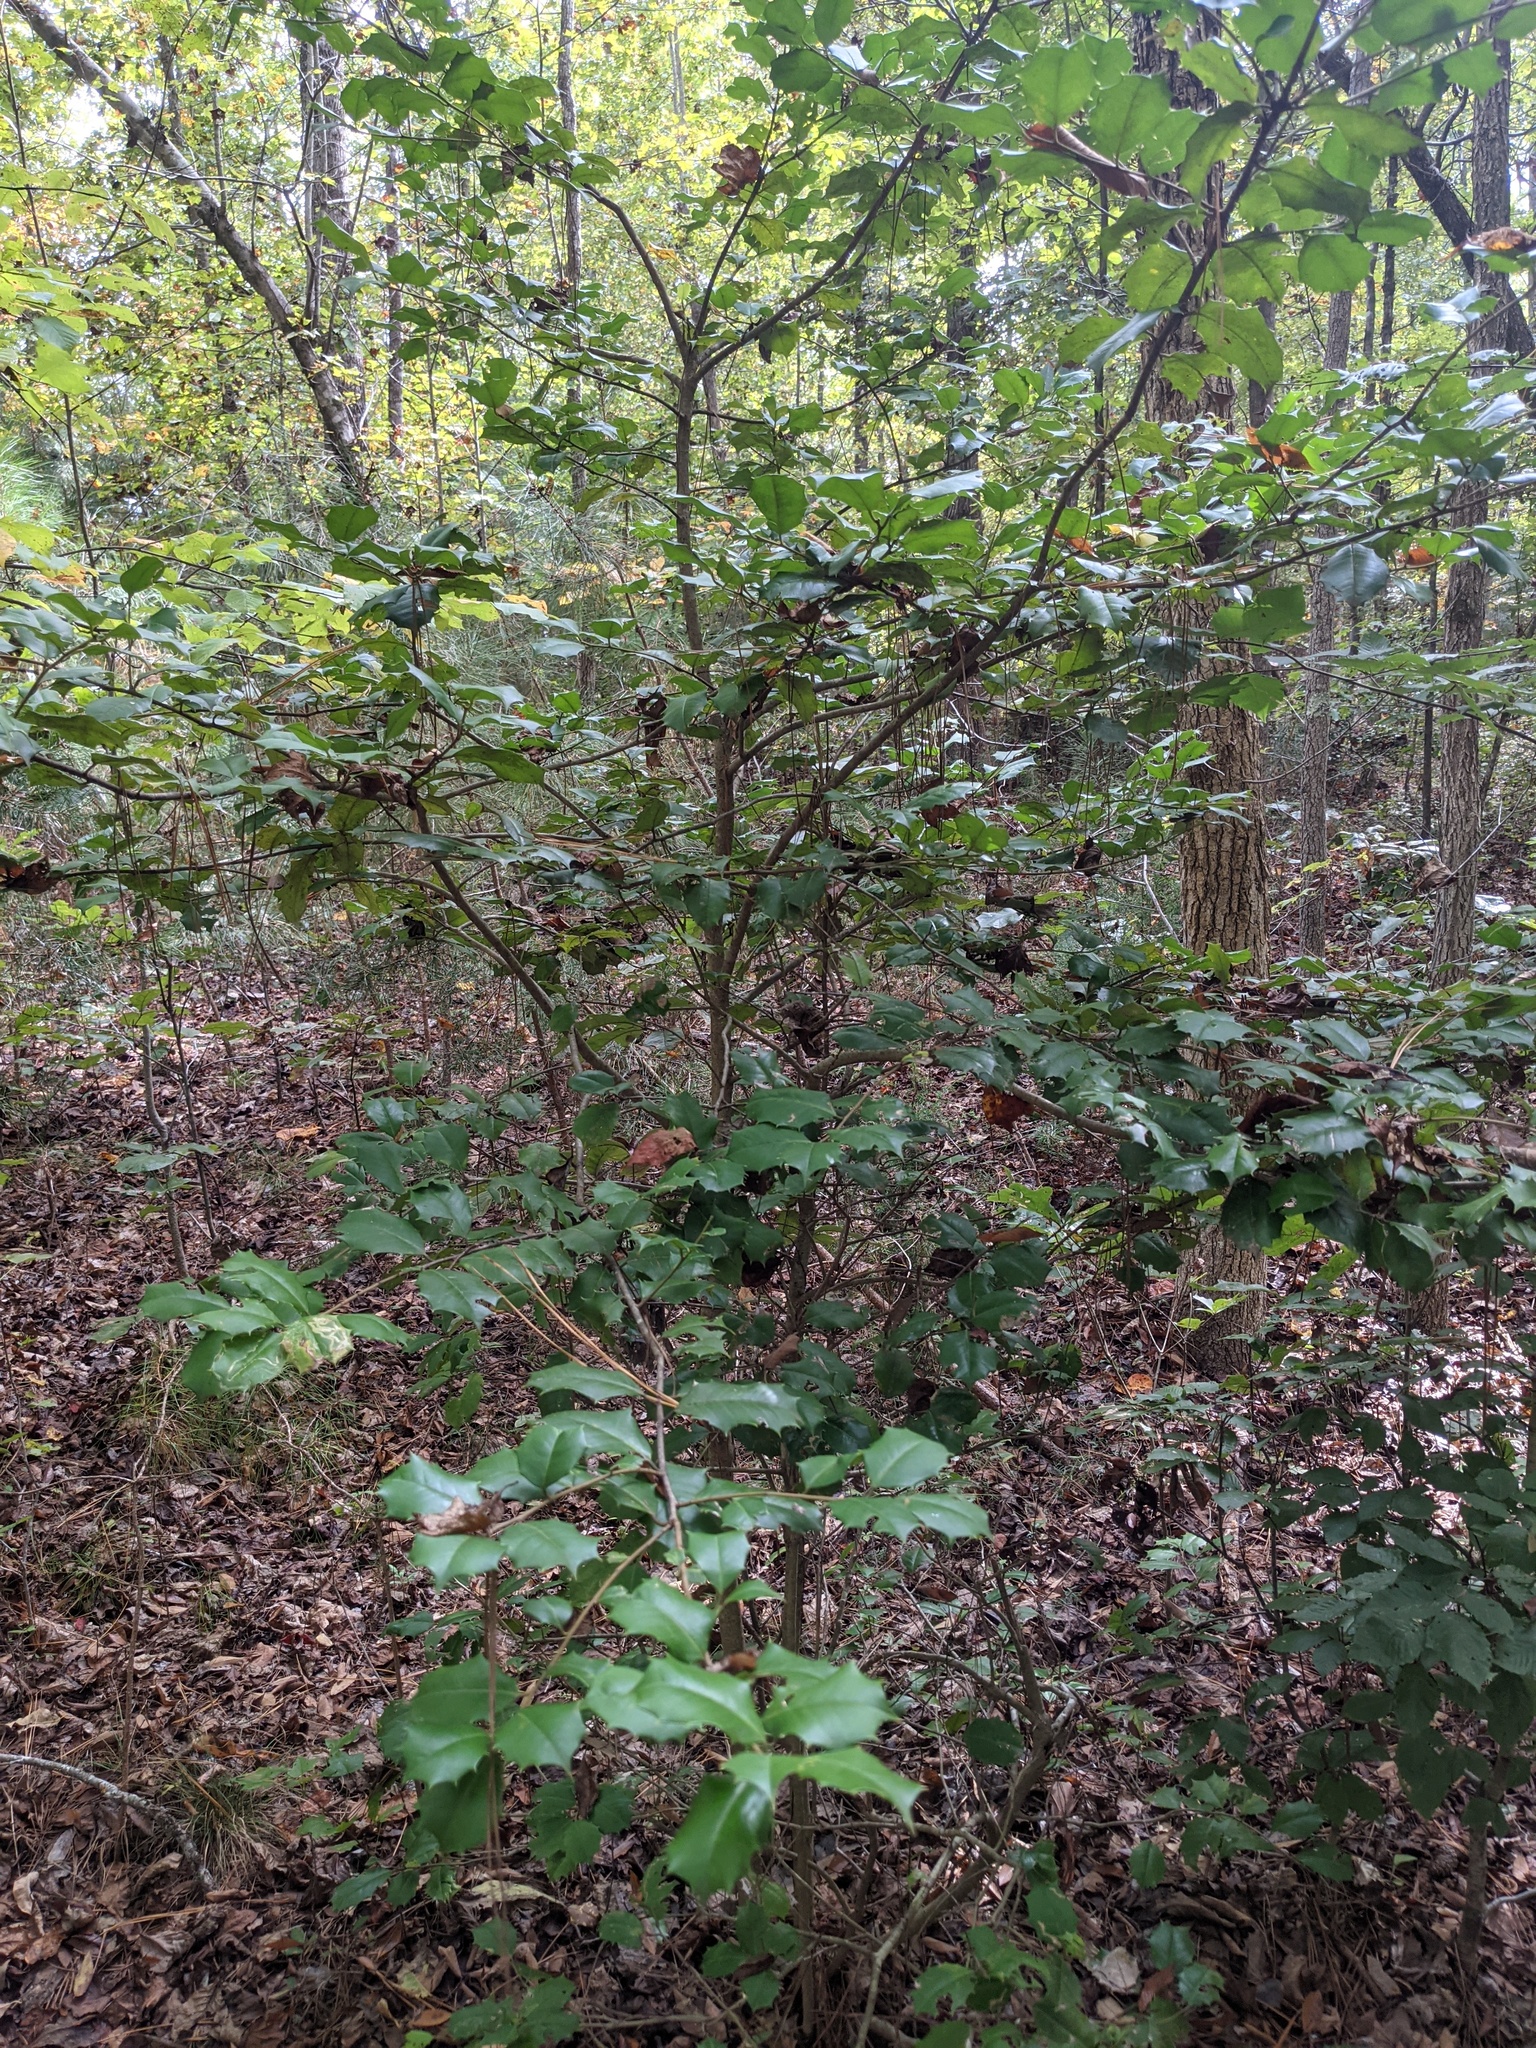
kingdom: Plantae
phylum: Tracheophyta
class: Magnoliopsida
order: Aquifoliales
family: Aquifoliaceae
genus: Ilex
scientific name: Ilex opaca
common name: American holly
